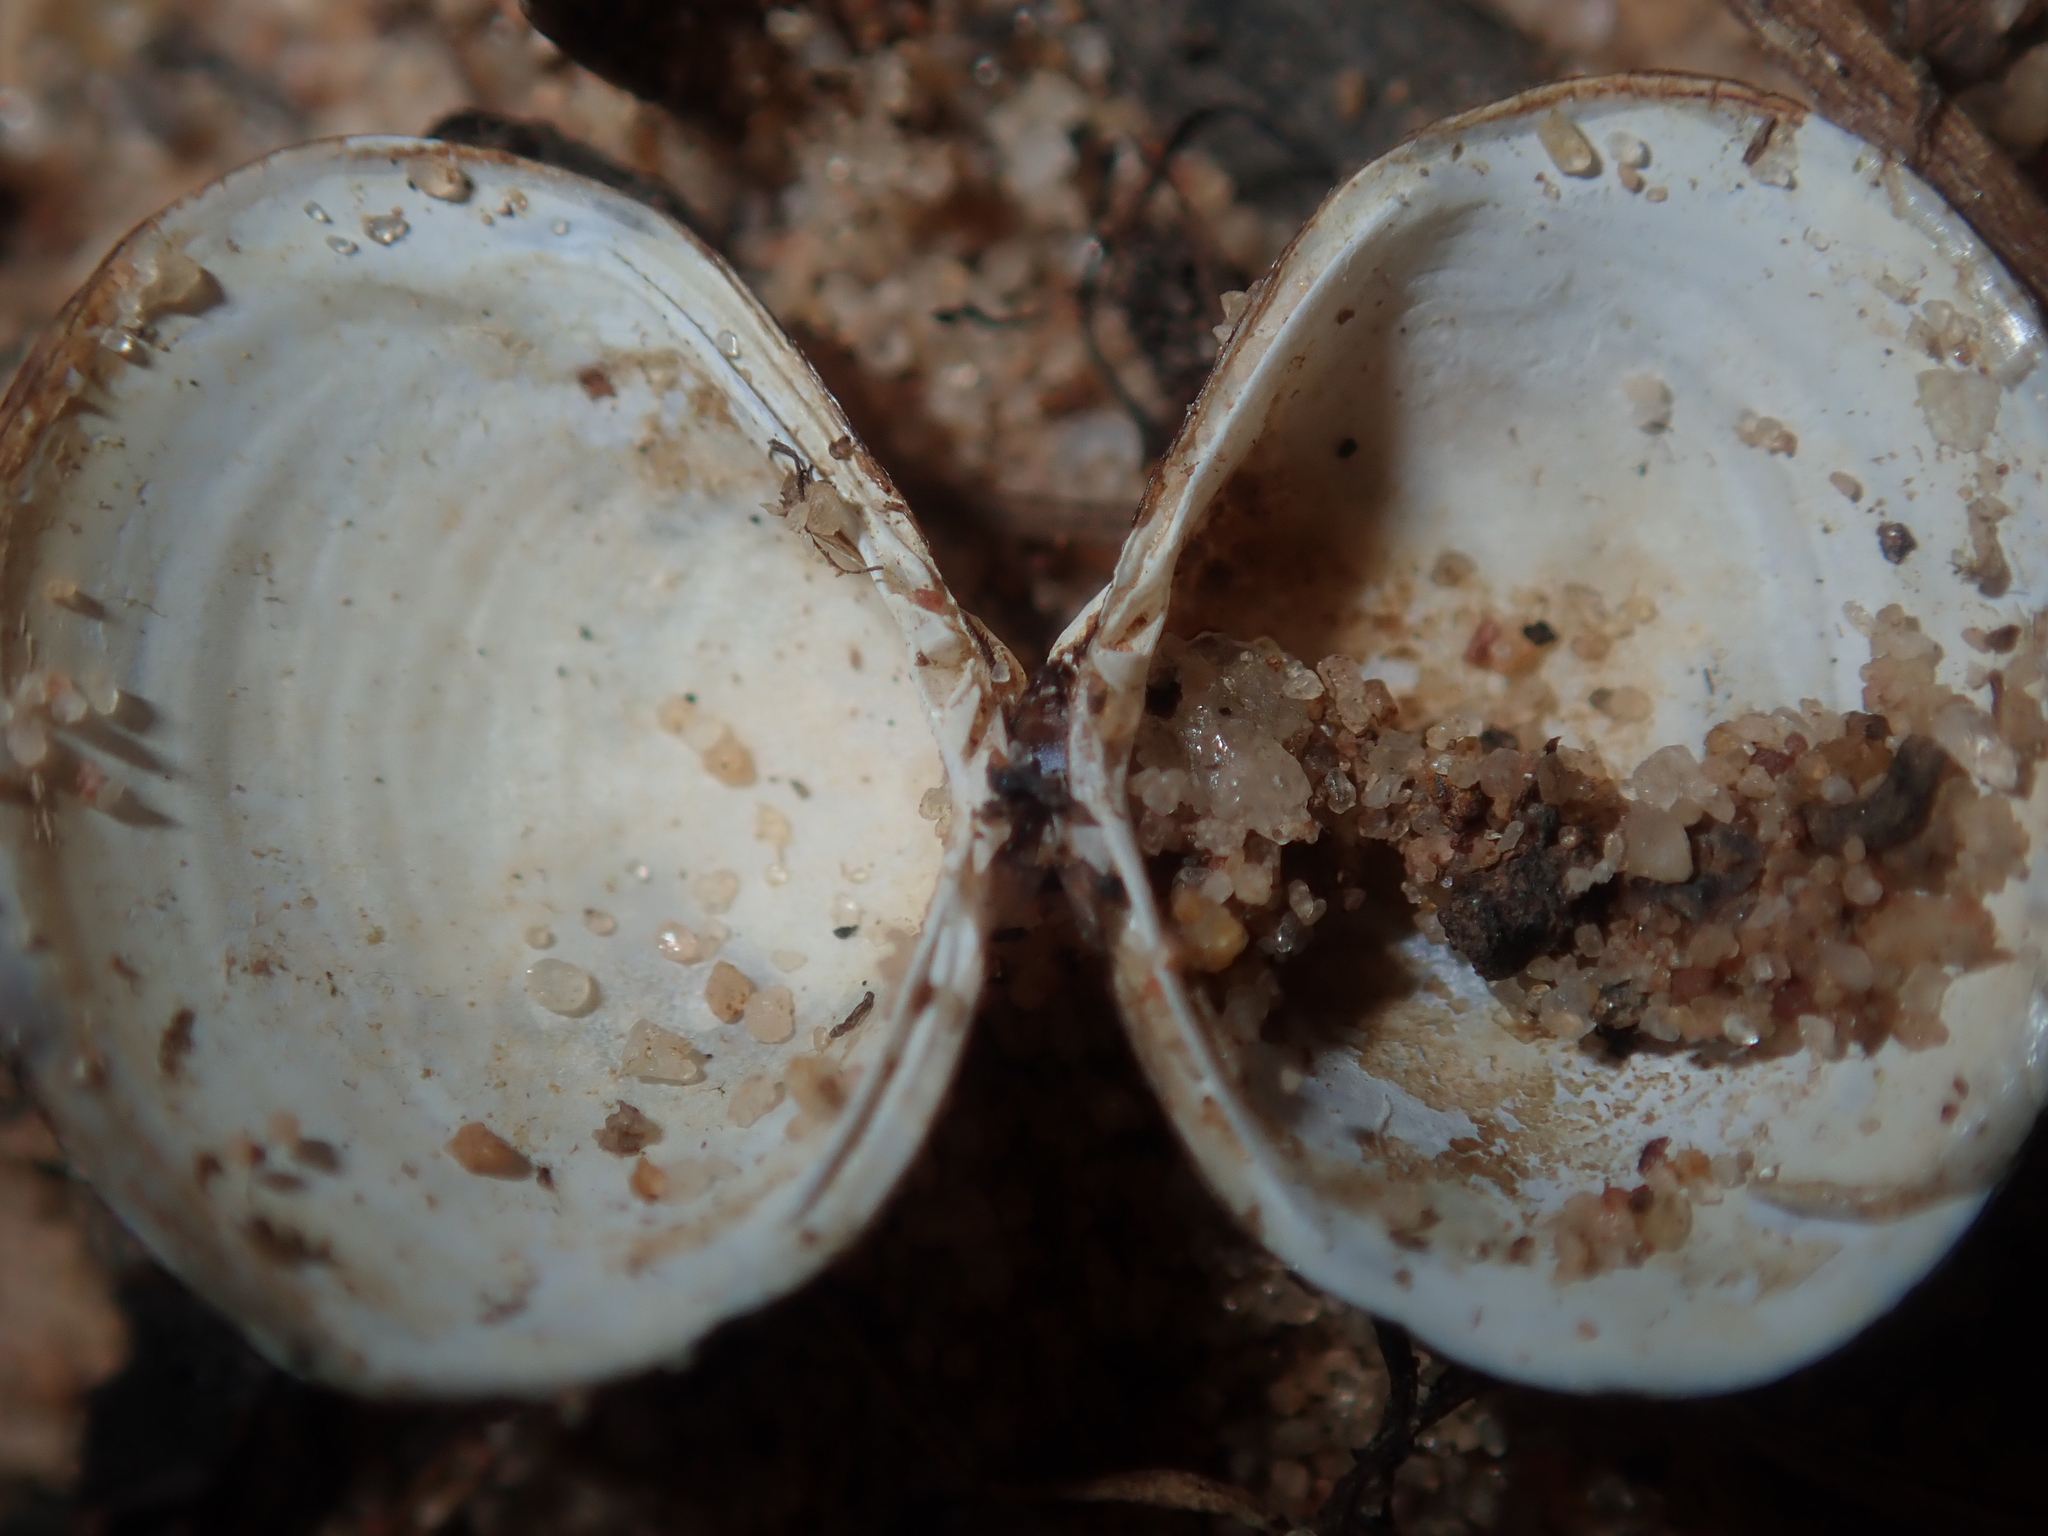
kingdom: Animalia
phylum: Mollusca
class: Bivalvia
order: Venerida
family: Cyrenidae
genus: Corbicula
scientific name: Corbicula australis
